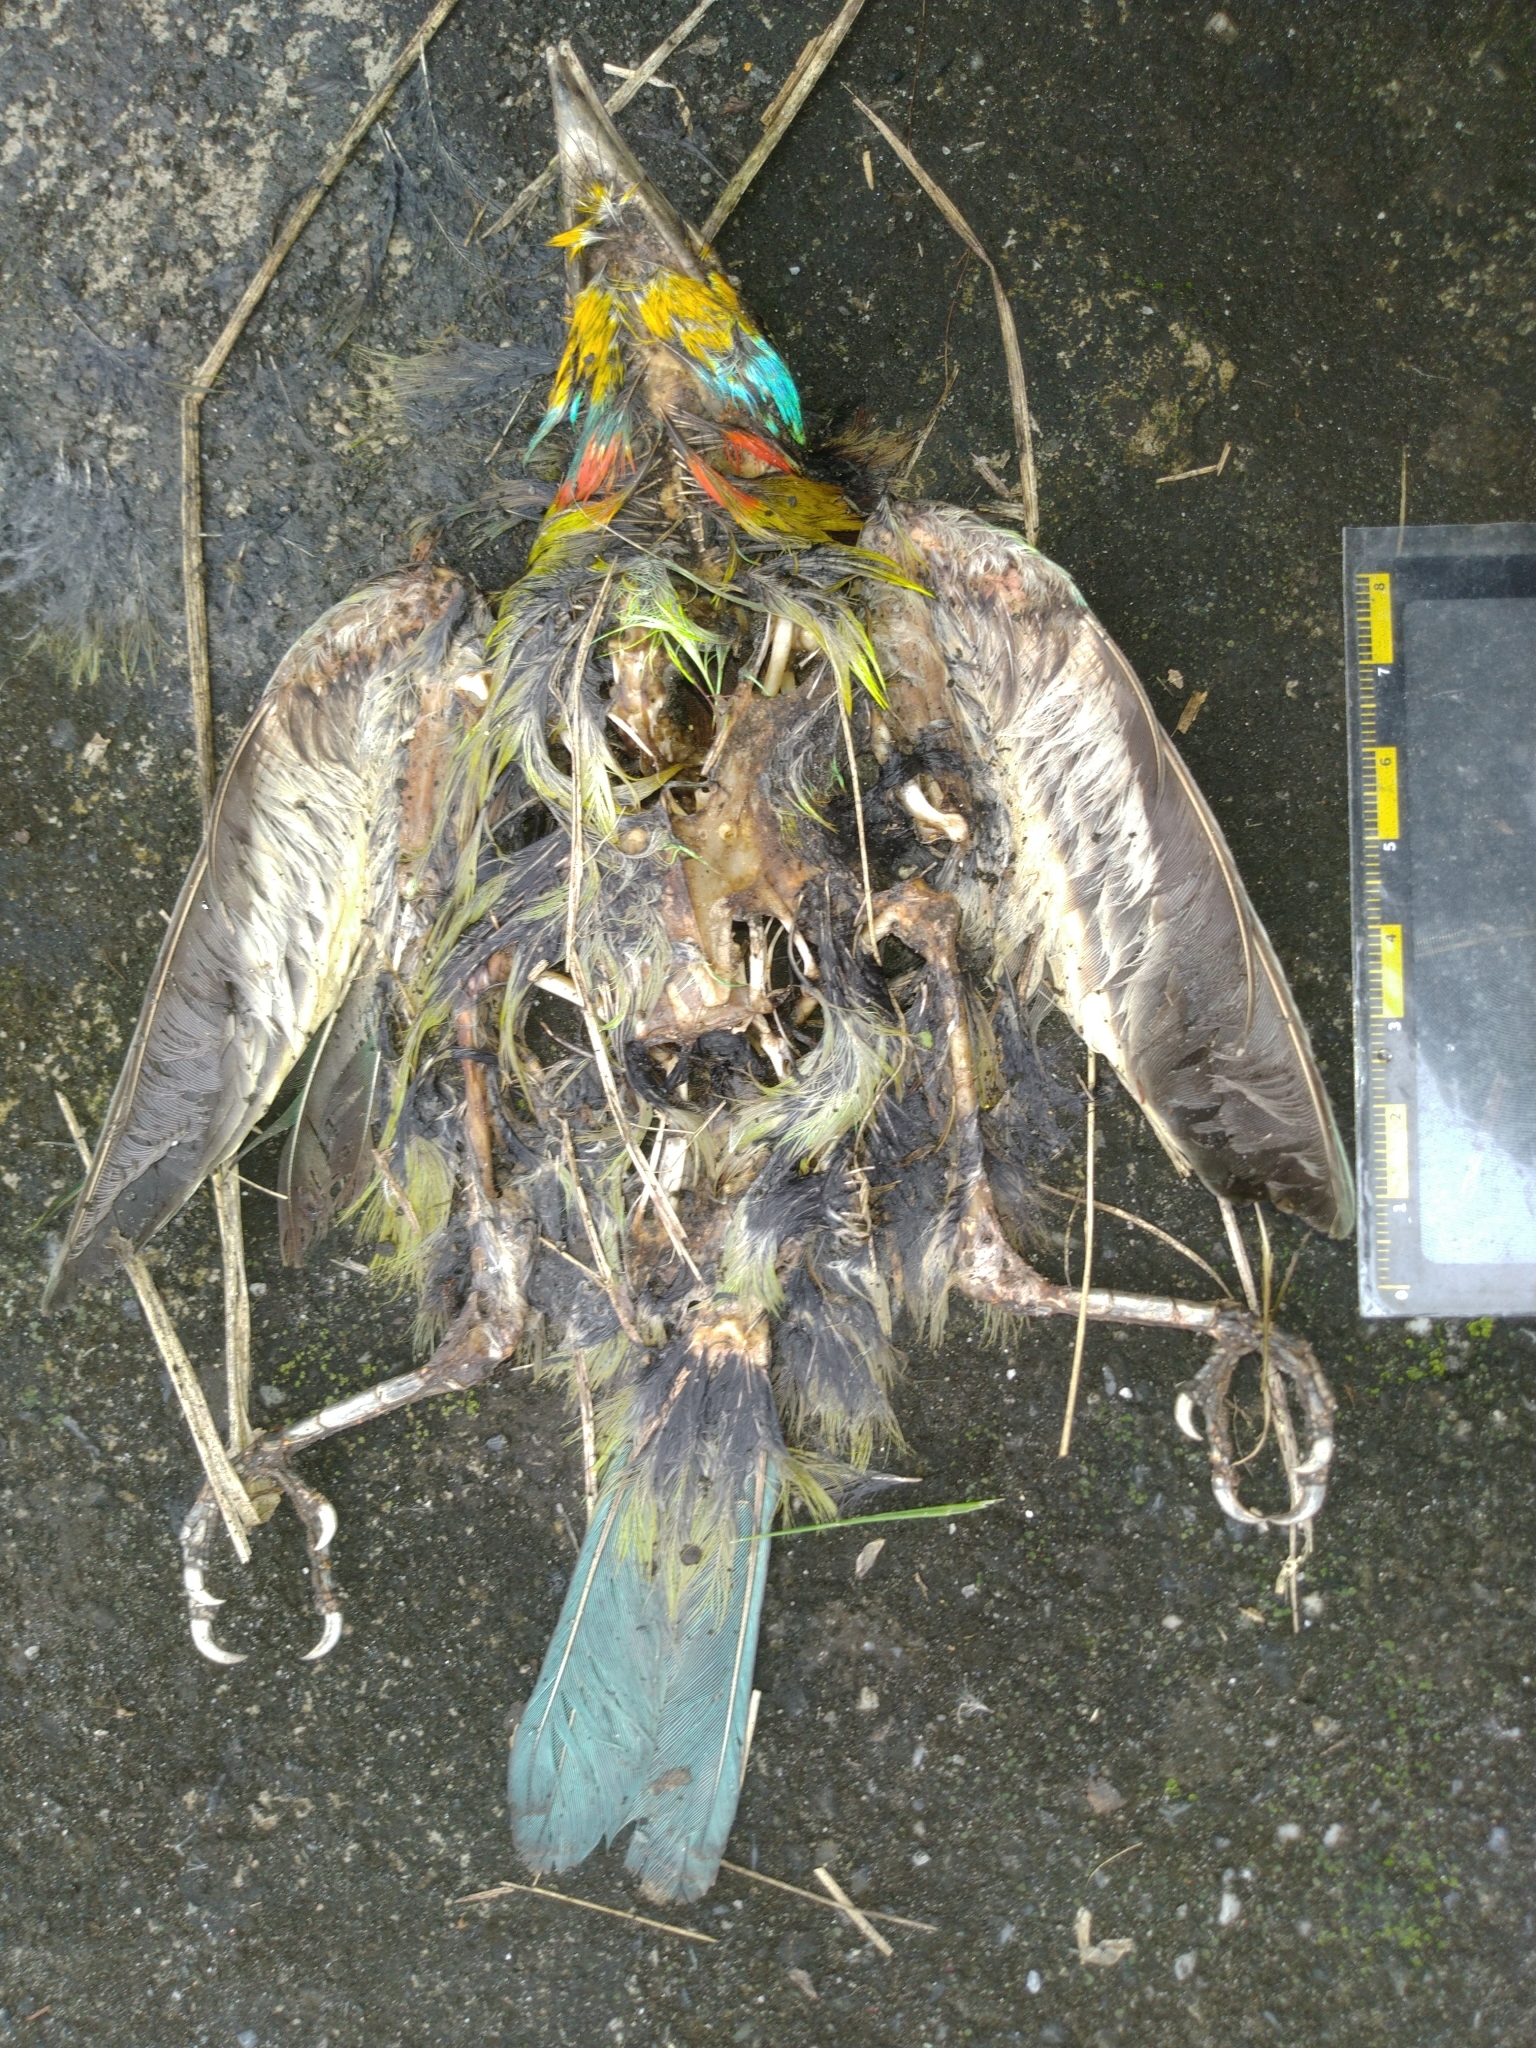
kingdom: Animalia
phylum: Chordata
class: Aves
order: Piciformes
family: Megalaimidae
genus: Psilopogon
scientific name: Psilopogon nuchalis
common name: Taiwan barbet
